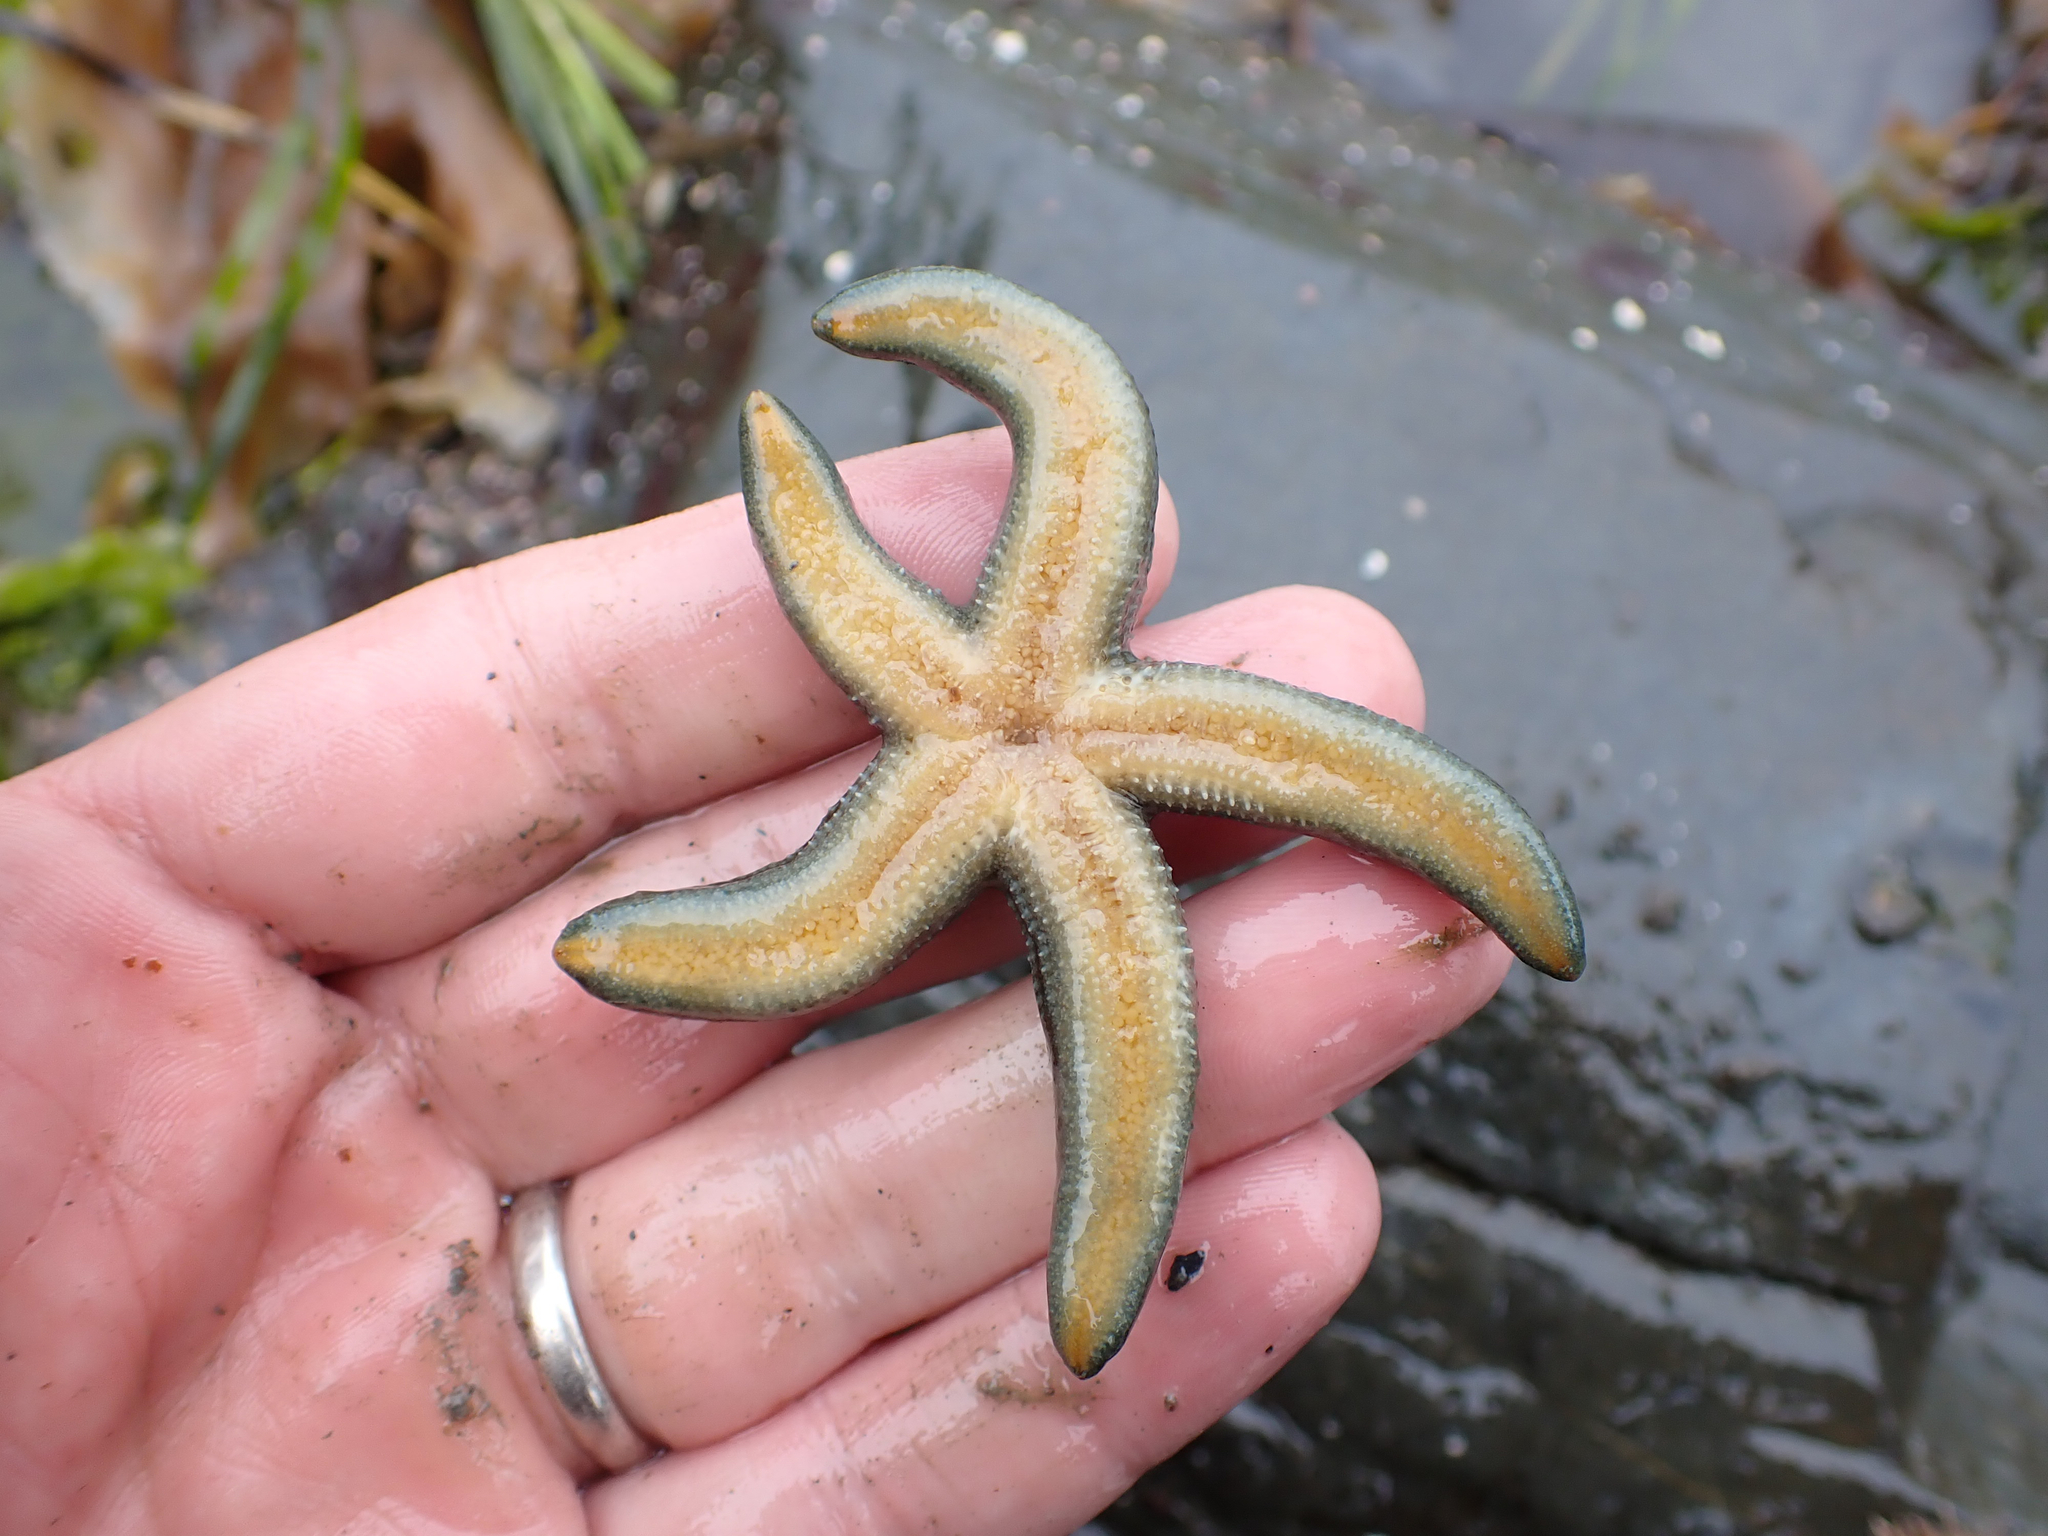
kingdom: Animalia
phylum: Echinodermata
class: Asteroidea
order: Forcipulatida
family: Asteriidae
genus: Evasterias
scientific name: Evasterias troschelii
